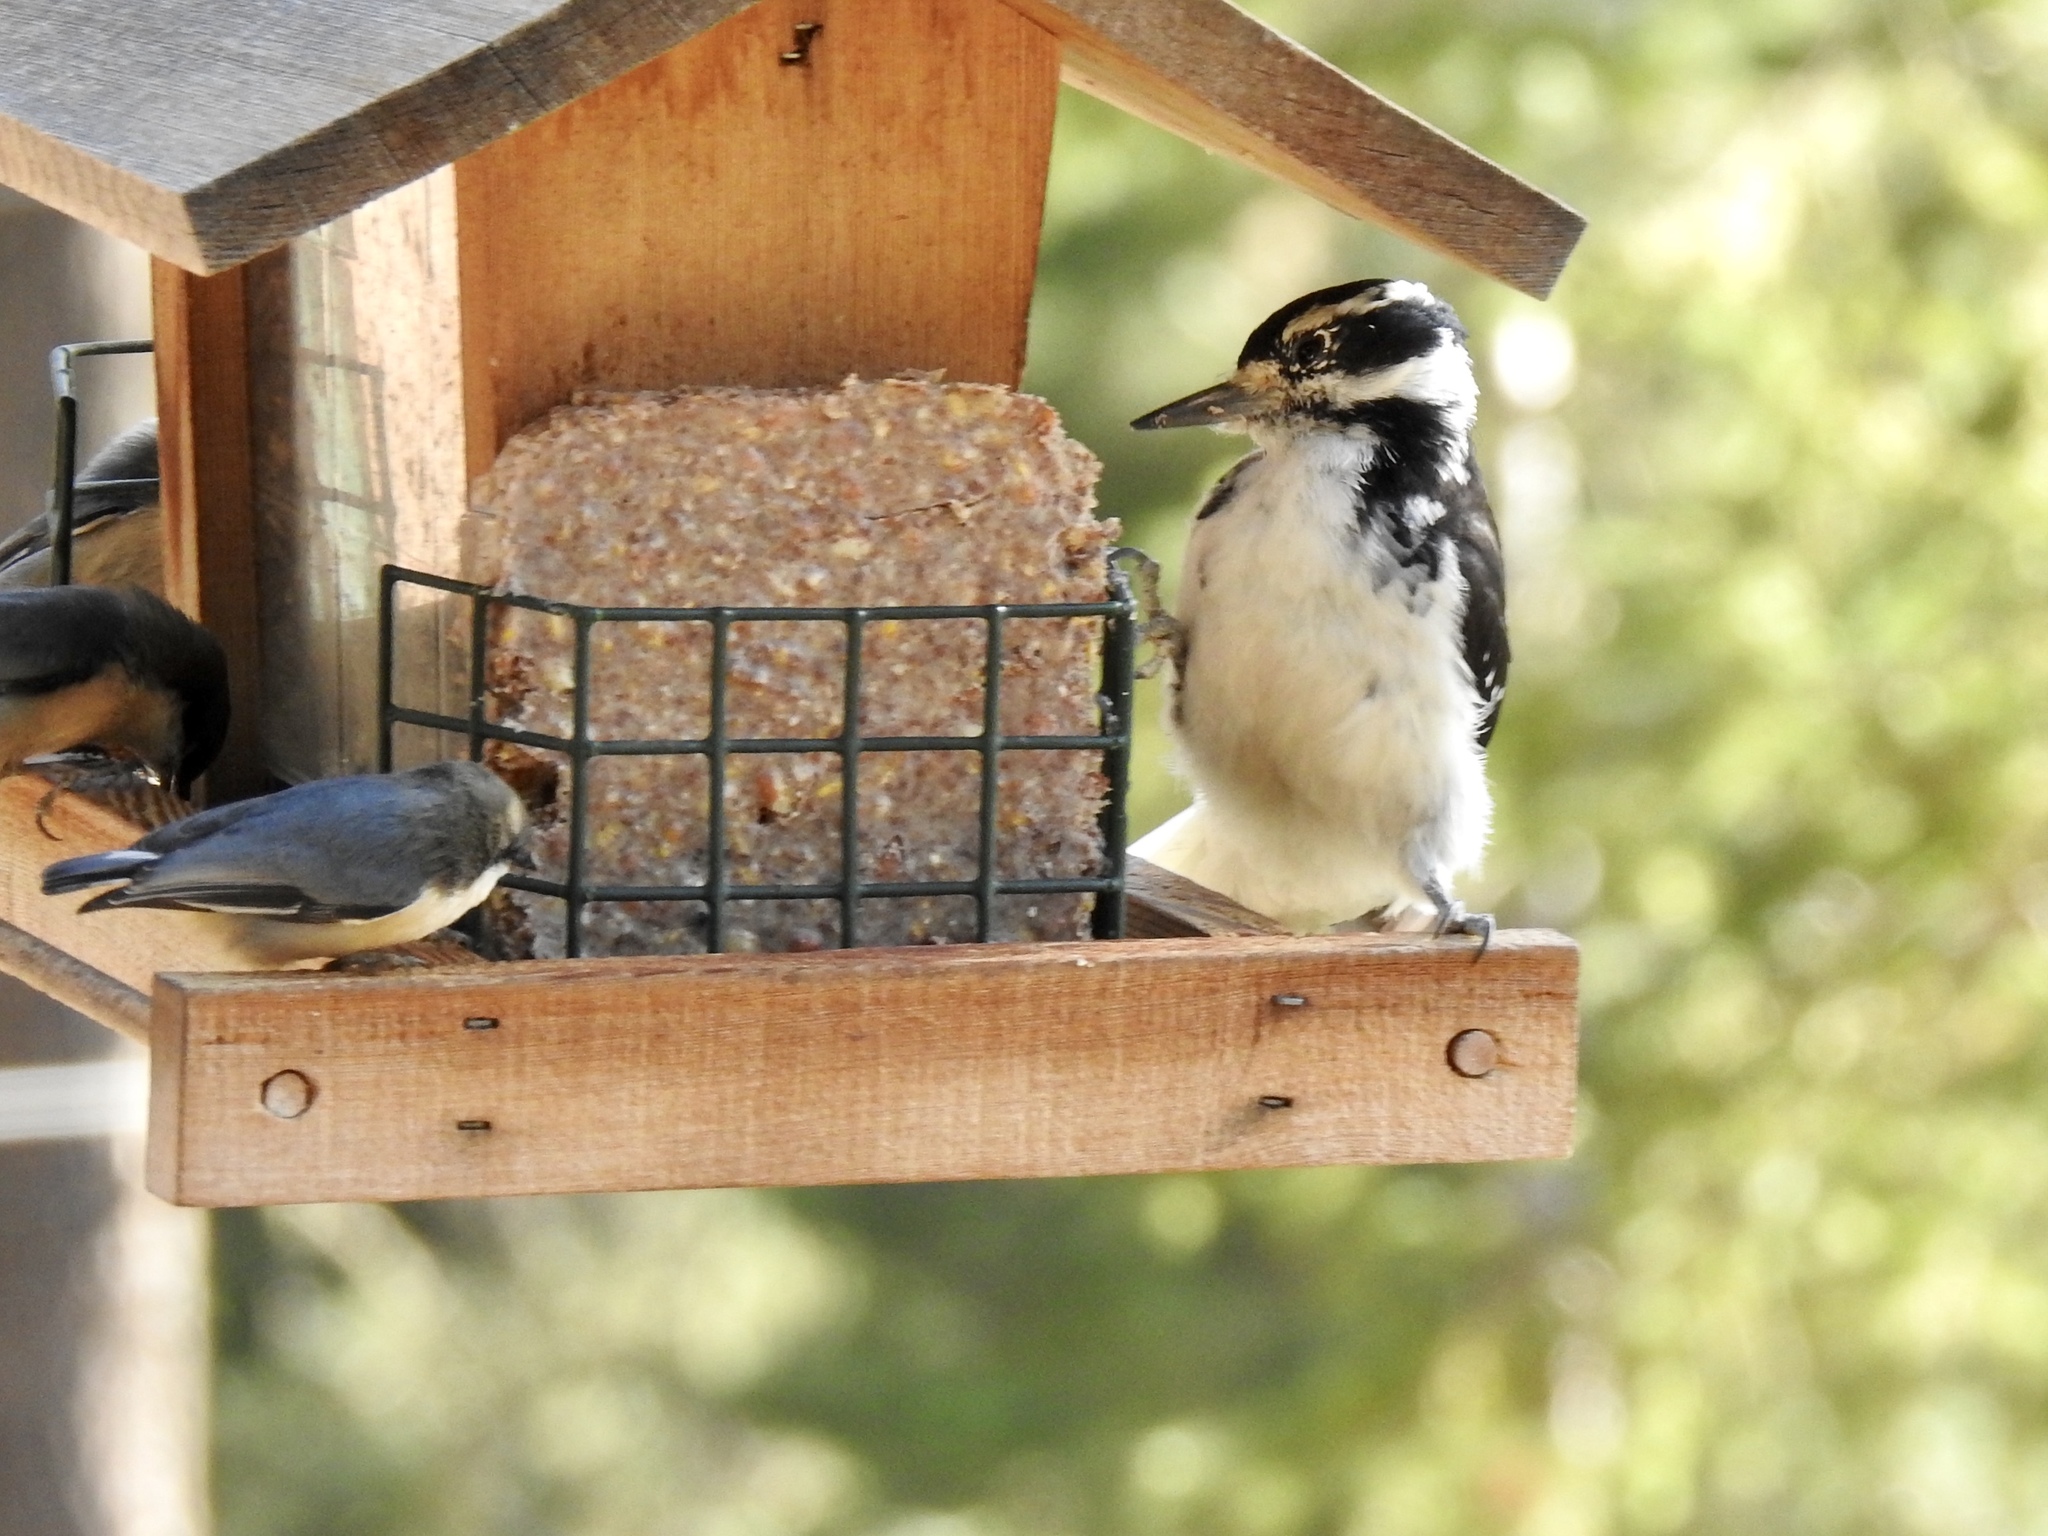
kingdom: Animalia
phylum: Chordata
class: Aves
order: Piciformes
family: Picidae
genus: Leuconotopicus
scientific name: Leuconotopicus villosus
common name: Hairy woodpecker
